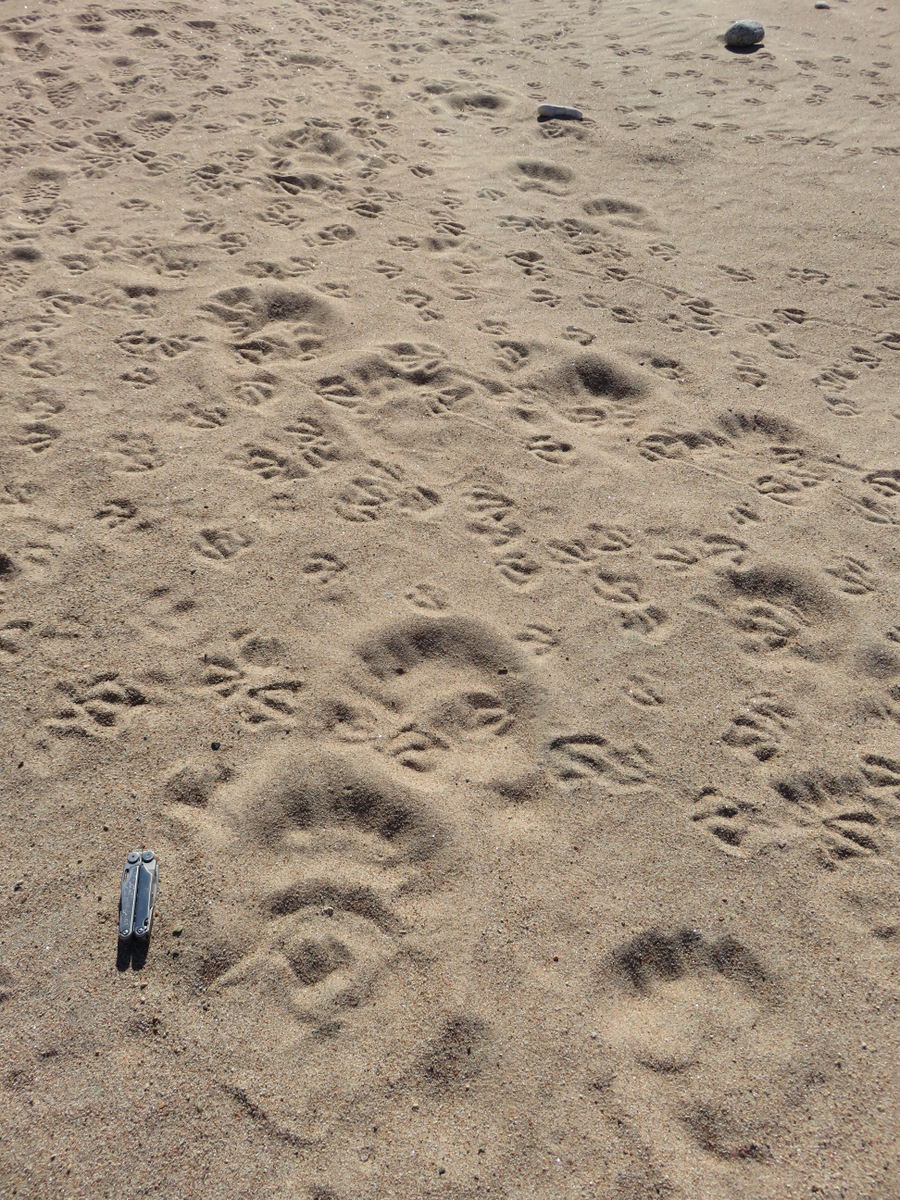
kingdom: Animalia
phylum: Chordata
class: Mammalia
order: Carnivora
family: Ursidae
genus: Ursus
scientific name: Ursus maritimus
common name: Polar bear
